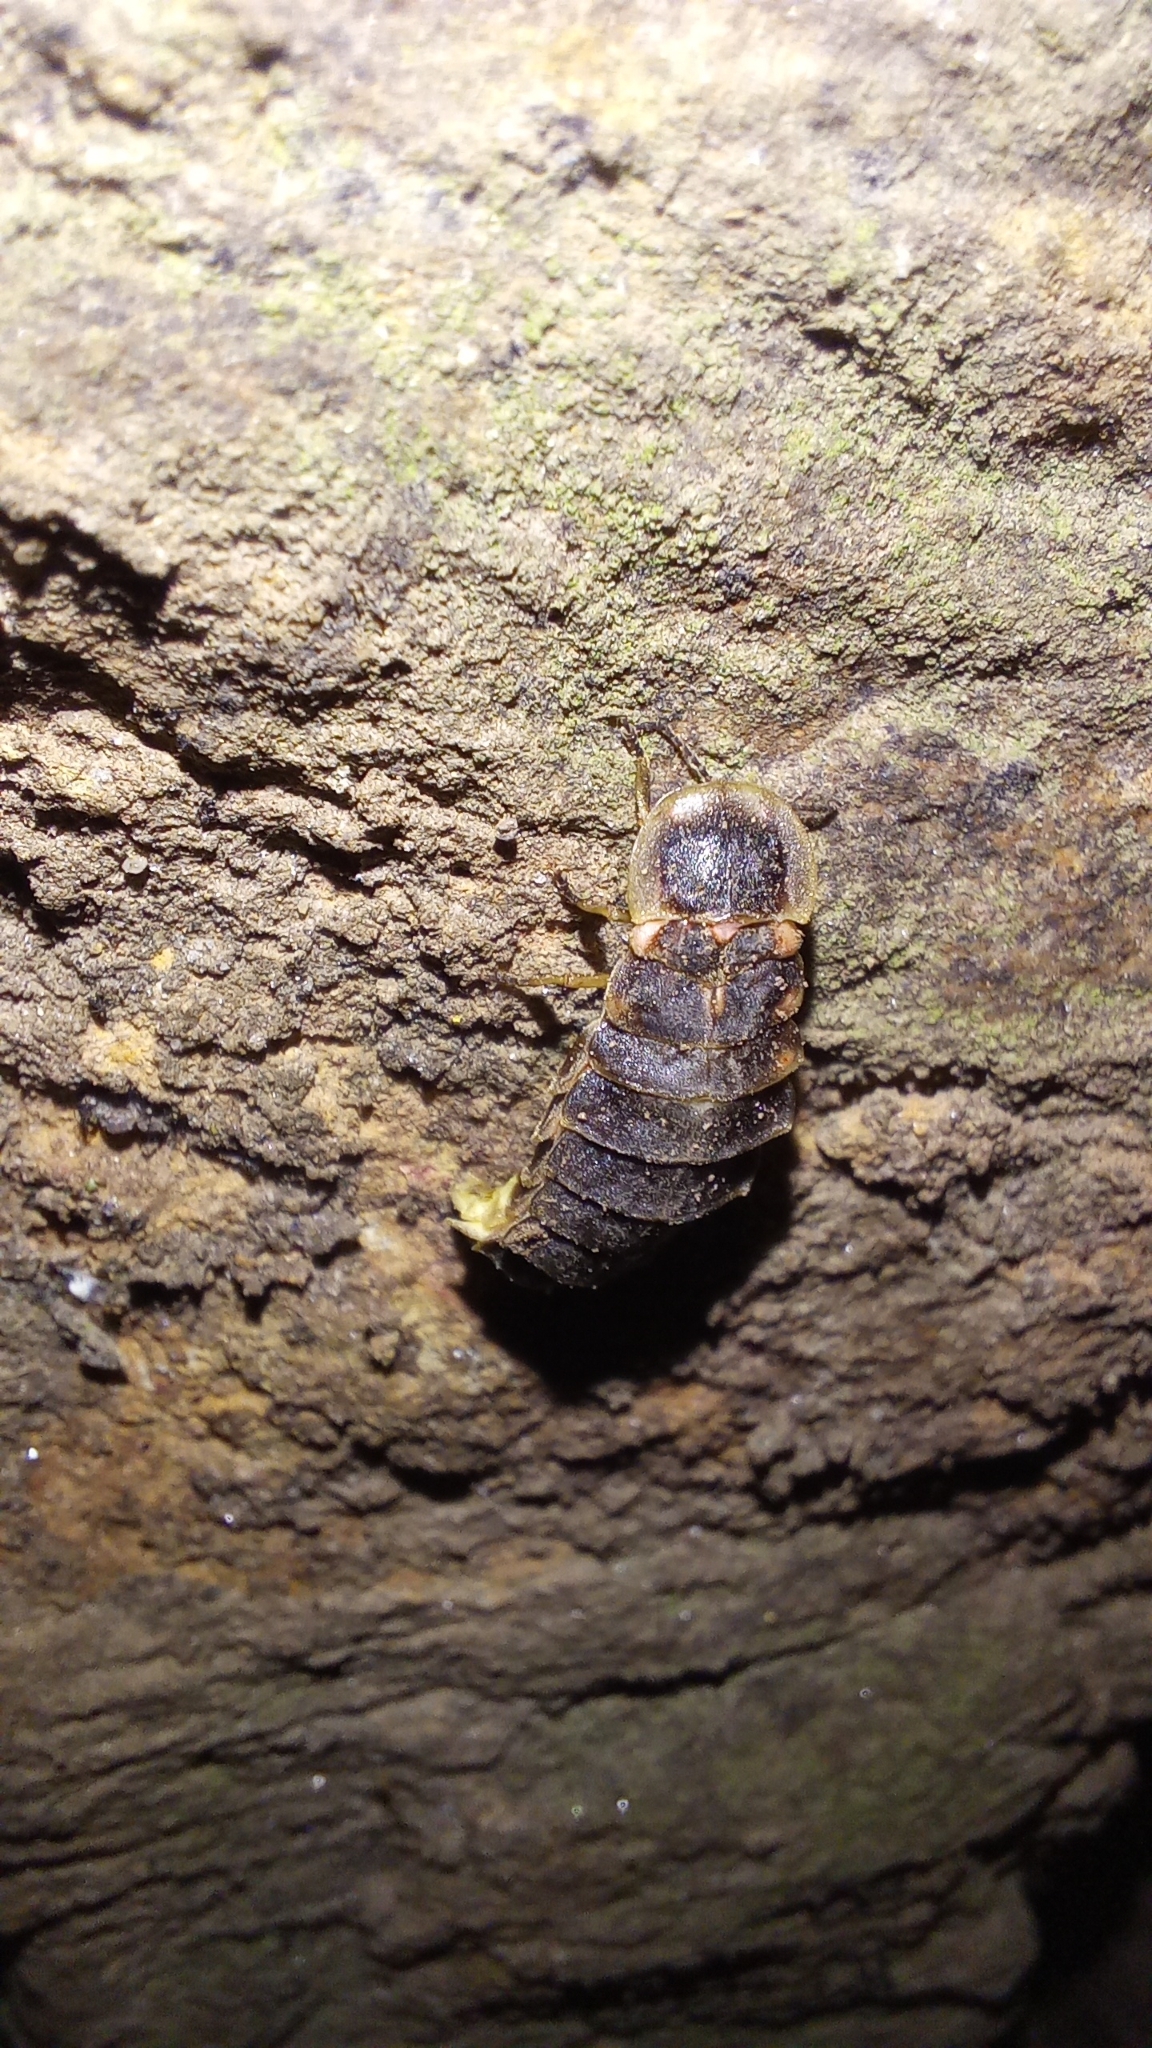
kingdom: Animalia
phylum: Arthropoda
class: Insecta
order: Coleoptera
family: Lampyridae
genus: Lampyris
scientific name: Lampyris noctiluca
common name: Glow-worm
